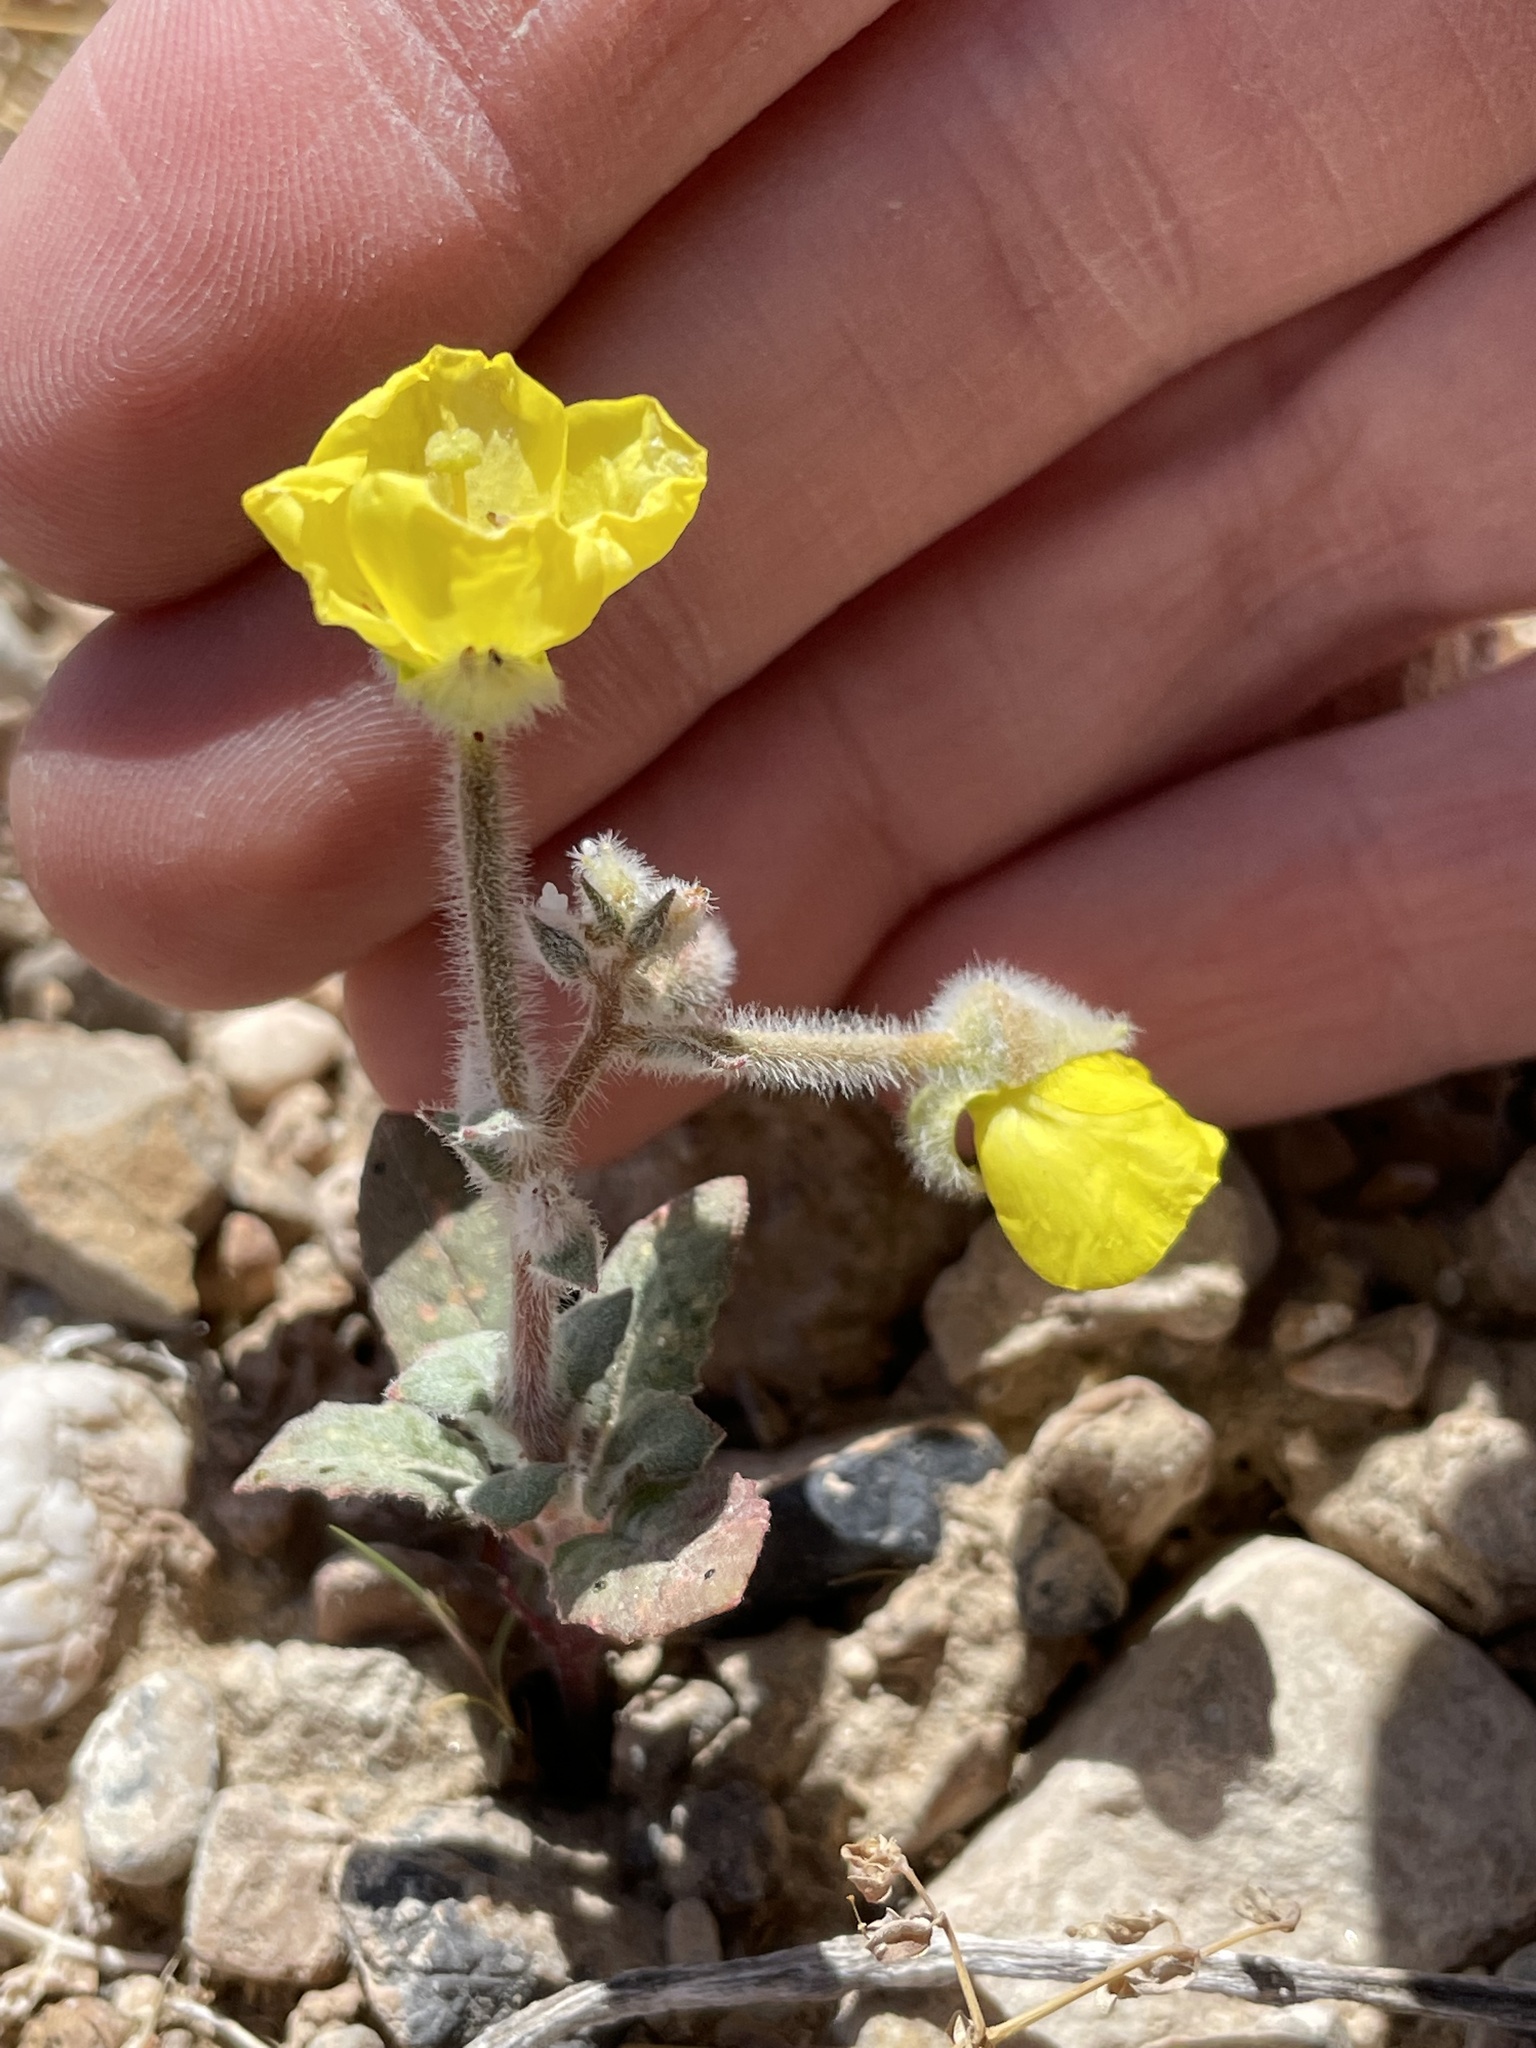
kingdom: Plantae
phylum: Tracheophyta
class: Magnoliopsida
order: Myrtales
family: Onagraceae
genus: Chylismia
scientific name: Chylismia brevipes
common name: Yellow cups
